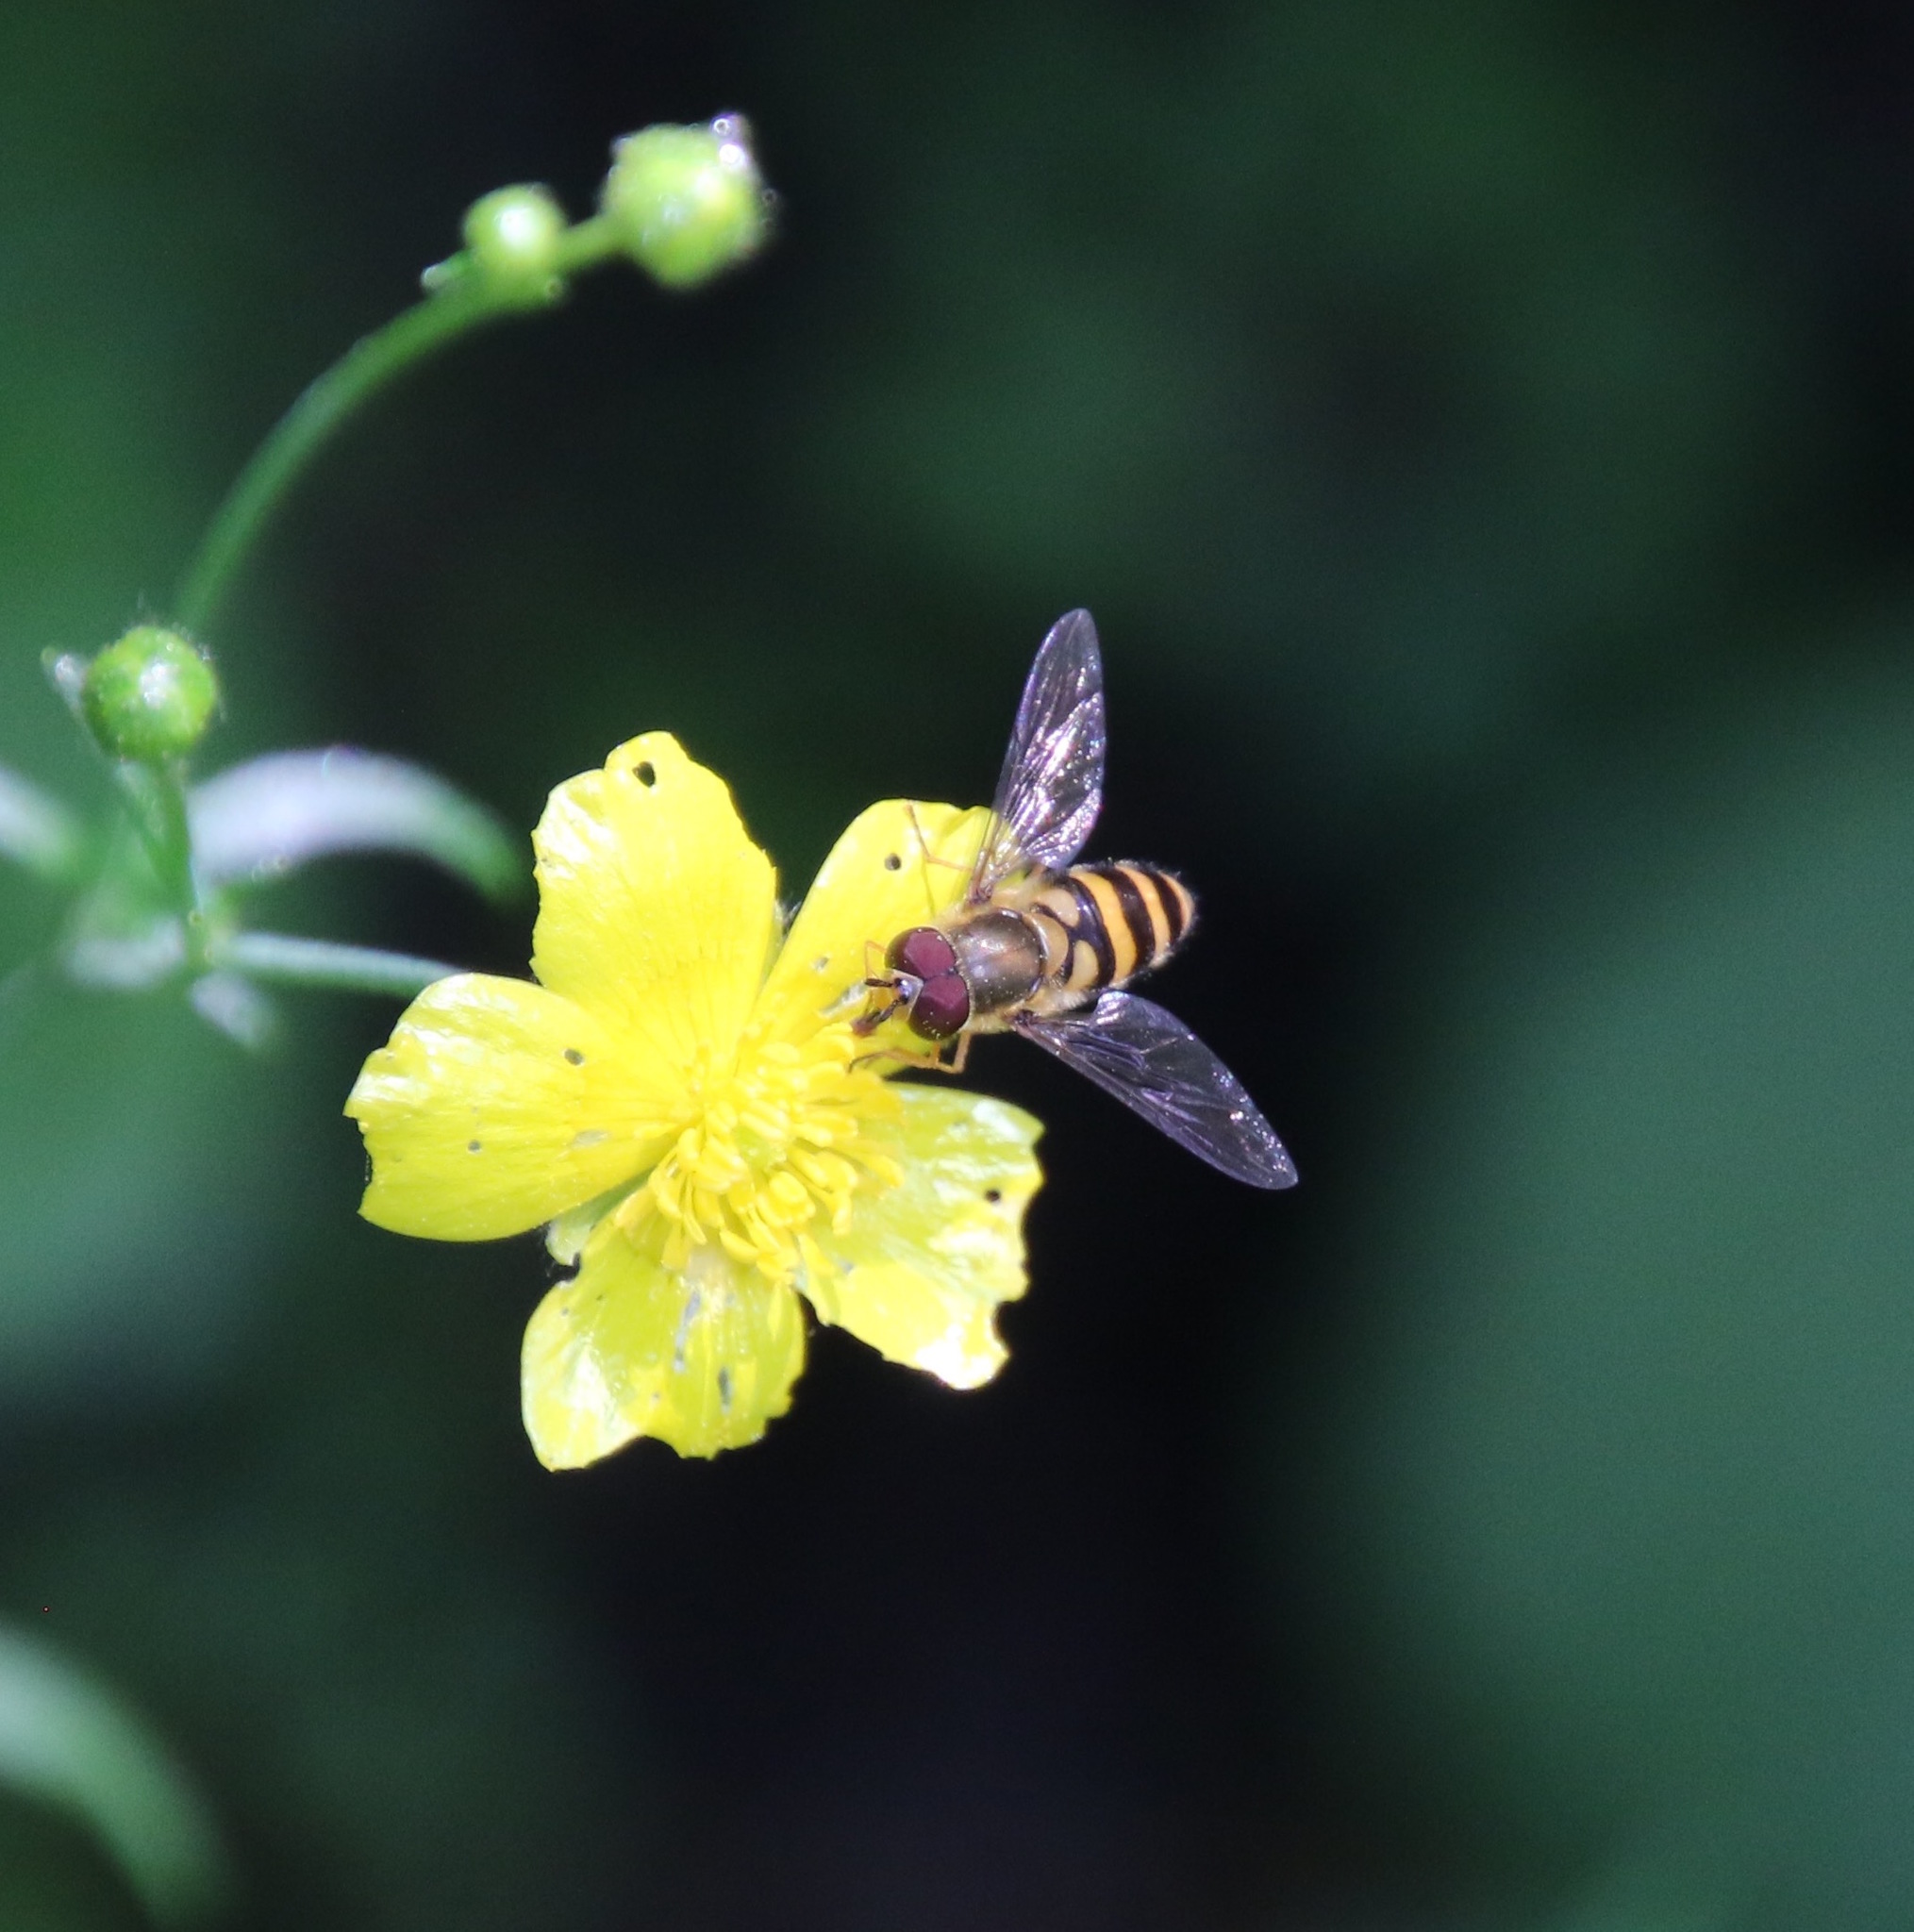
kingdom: Animalia
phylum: Arthropoda
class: Insecta
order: Diptera
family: Syrphidae
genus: Syrphus
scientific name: Syrphus
